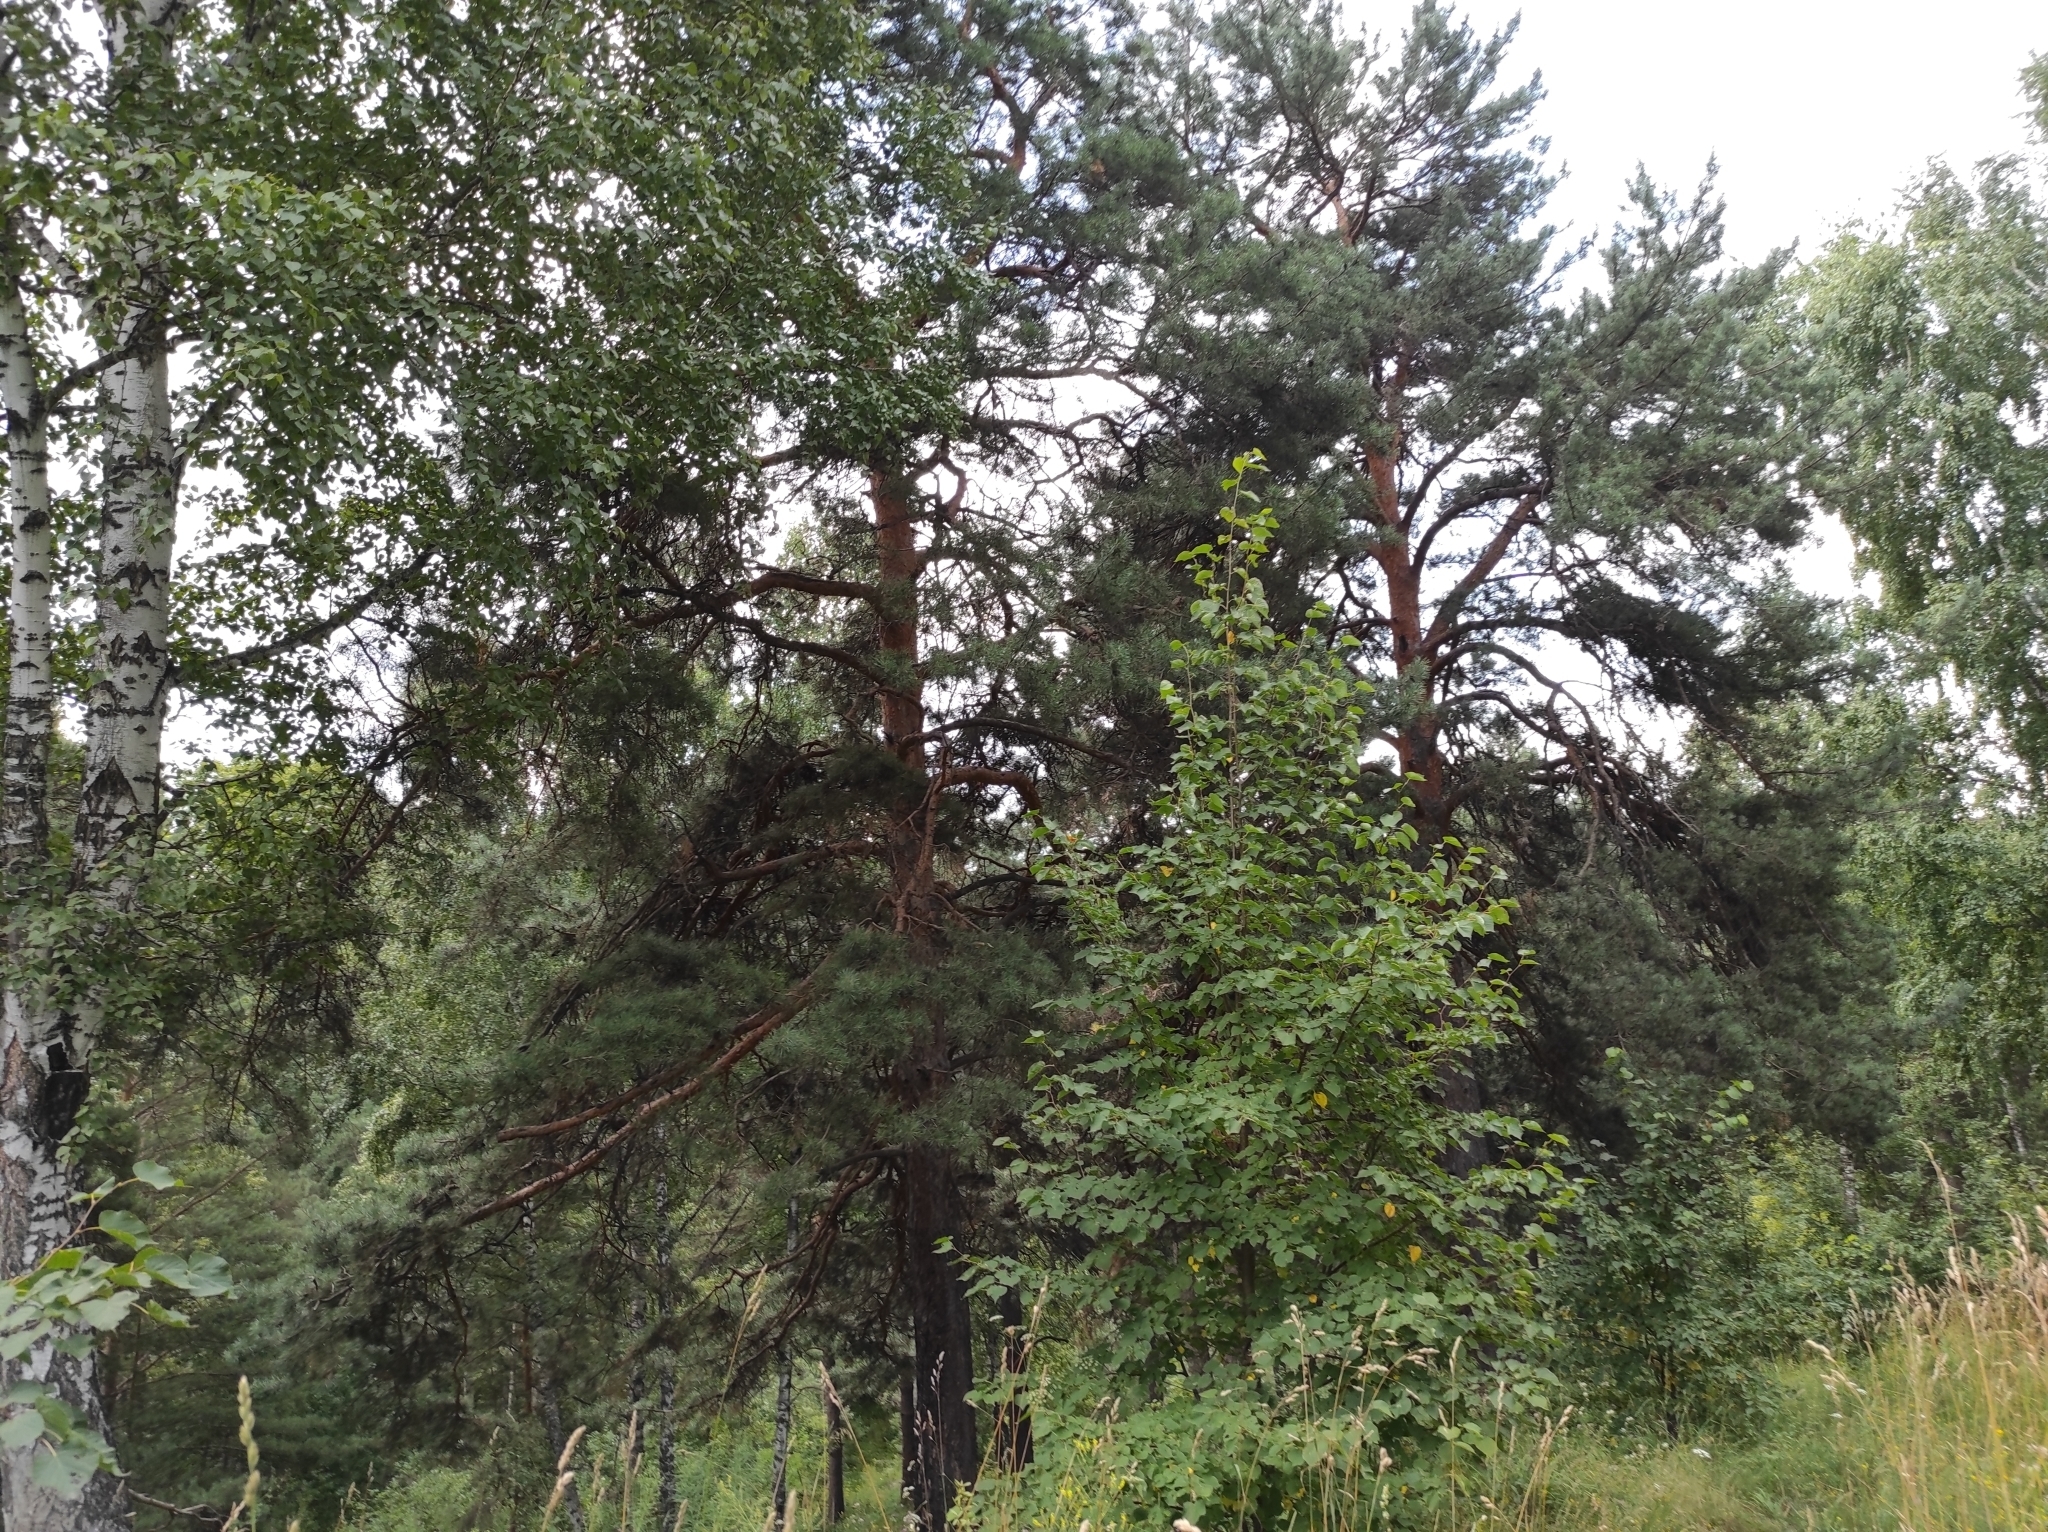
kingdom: Plantae
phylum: Tracheophyta
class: Magnoliopsida
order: Fagales
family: Betulaceae
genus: Betula
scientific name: Betula pendula
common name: Silver birch
